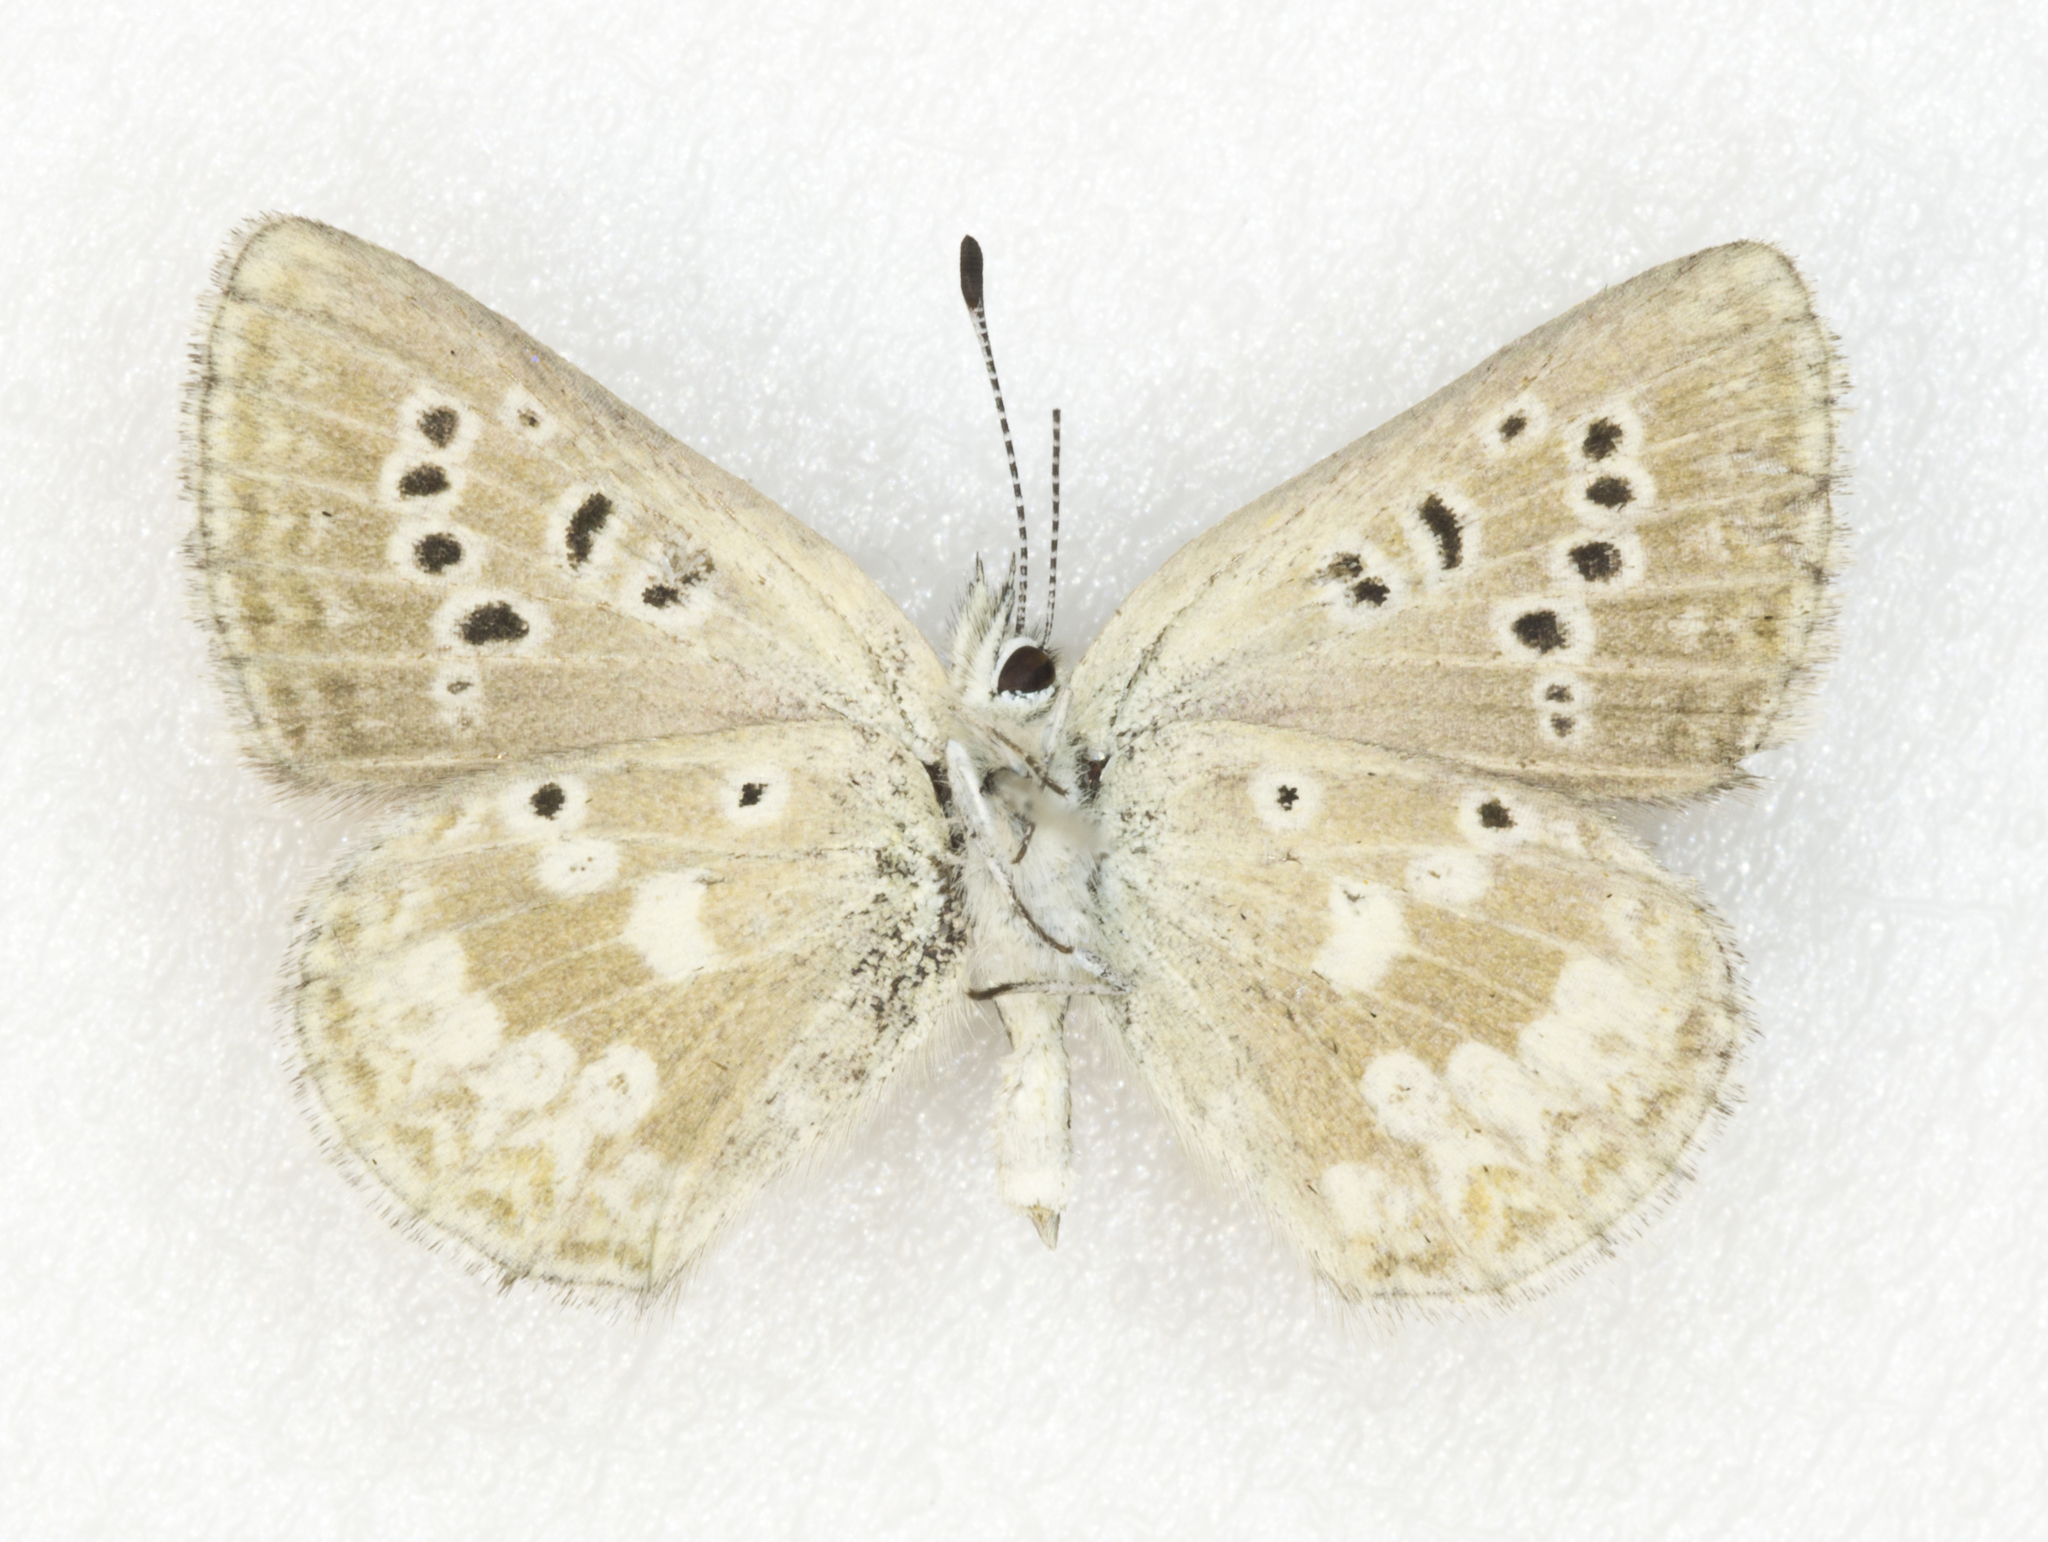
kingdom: Animalia
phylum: Arthropoda
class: Insecta
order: Lepidoptera
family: Lycaenidae
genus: Agriades
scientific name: Agriades glandon
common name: Glandon blue
